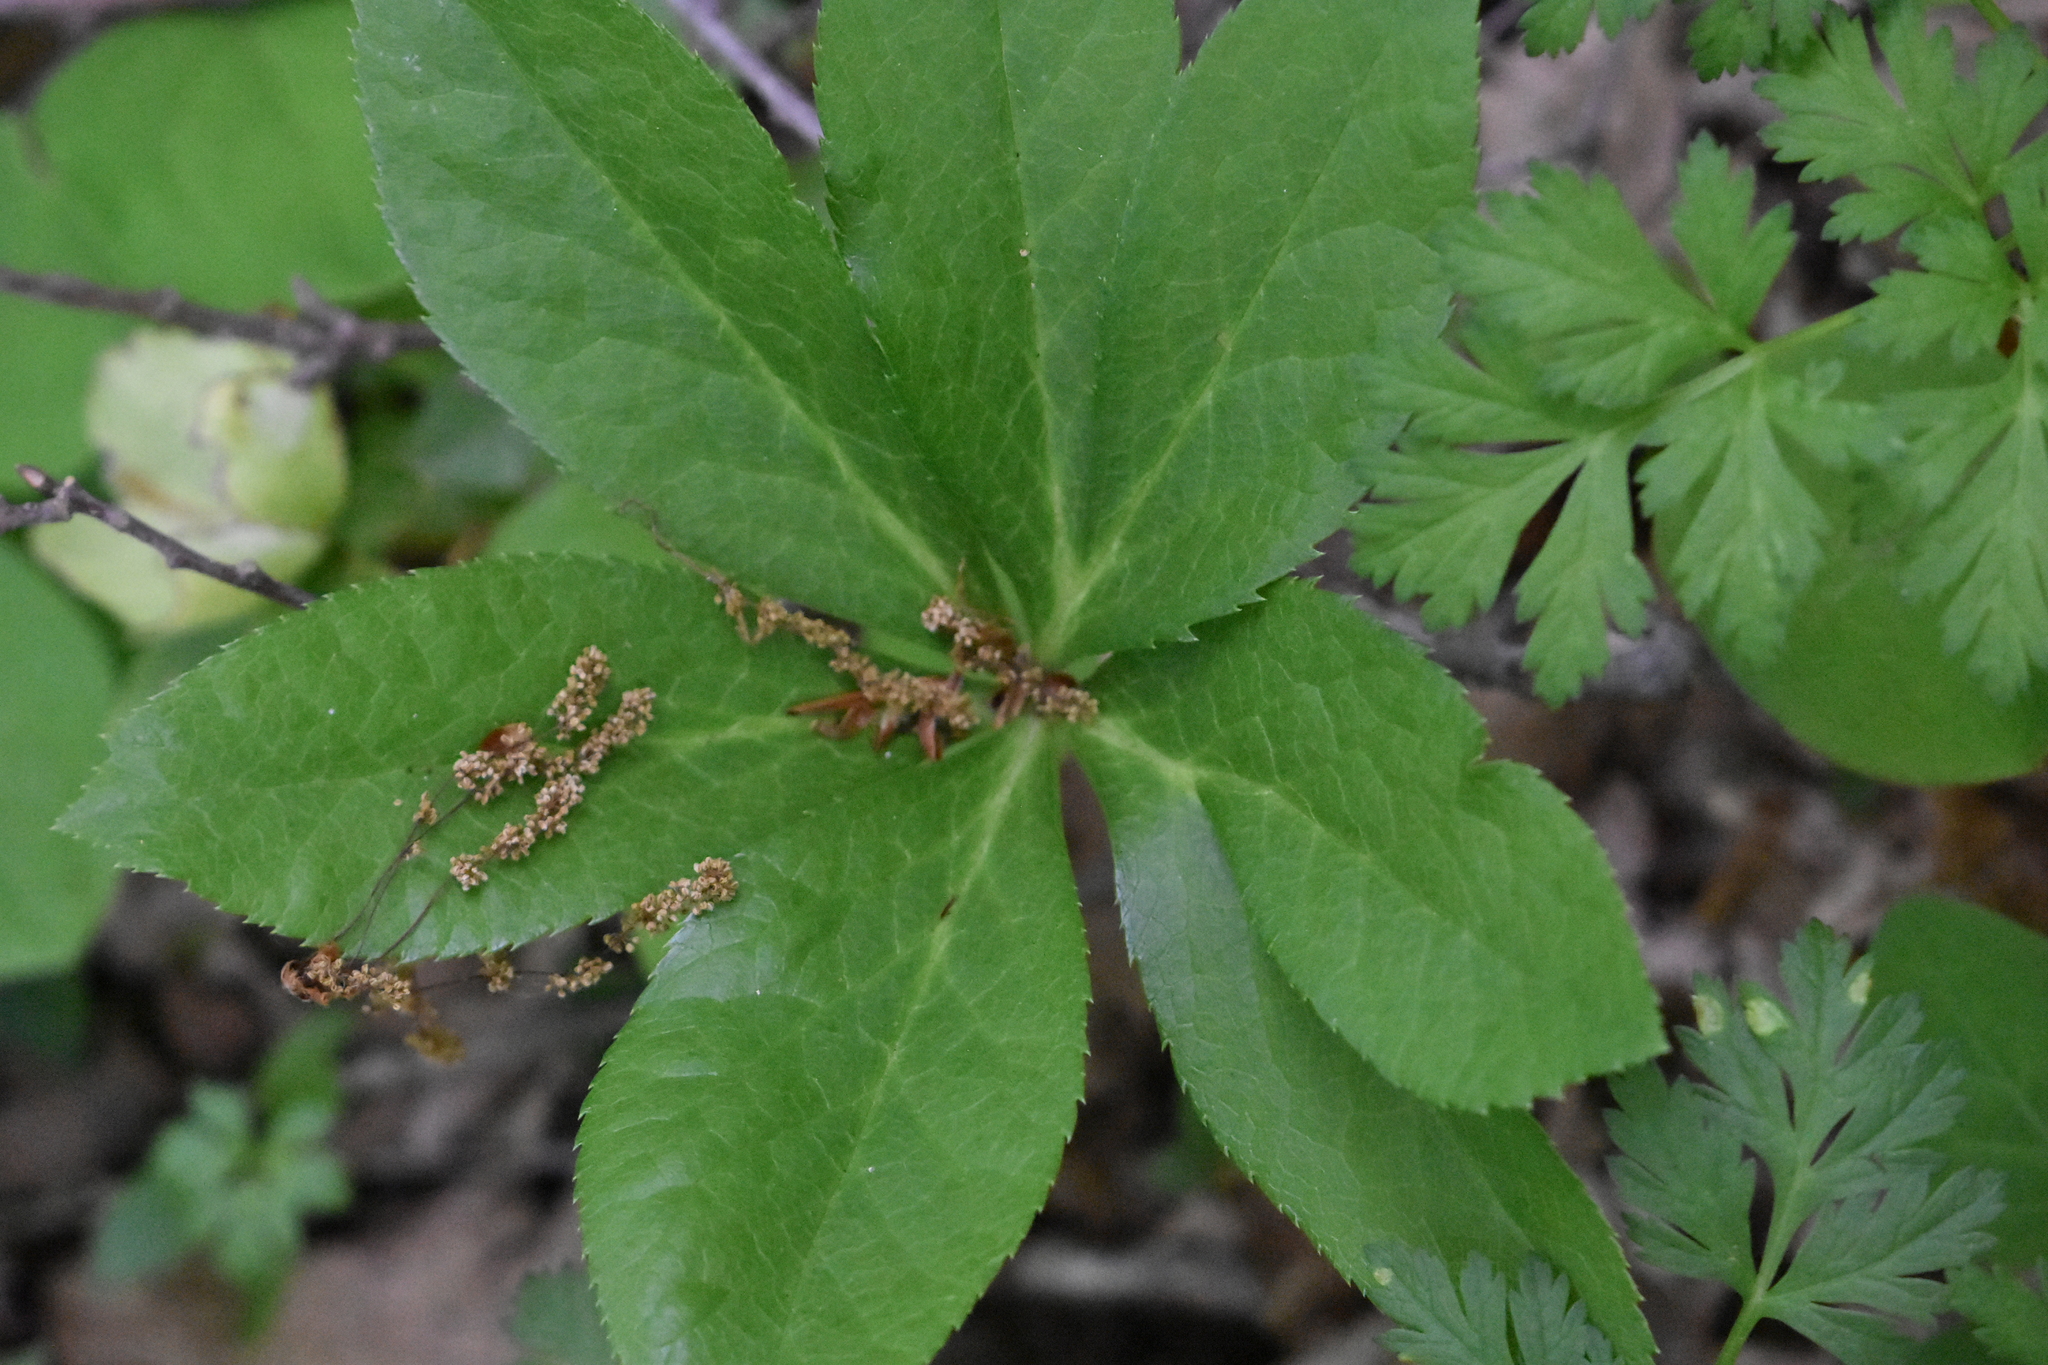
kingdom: Plantae
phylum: Tracheophyta
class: Magnoliopsida
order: Ranunculales
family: Ranunculaceae
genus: Helleborus
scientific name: Helleborus orientalis
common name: Lenten-rose
